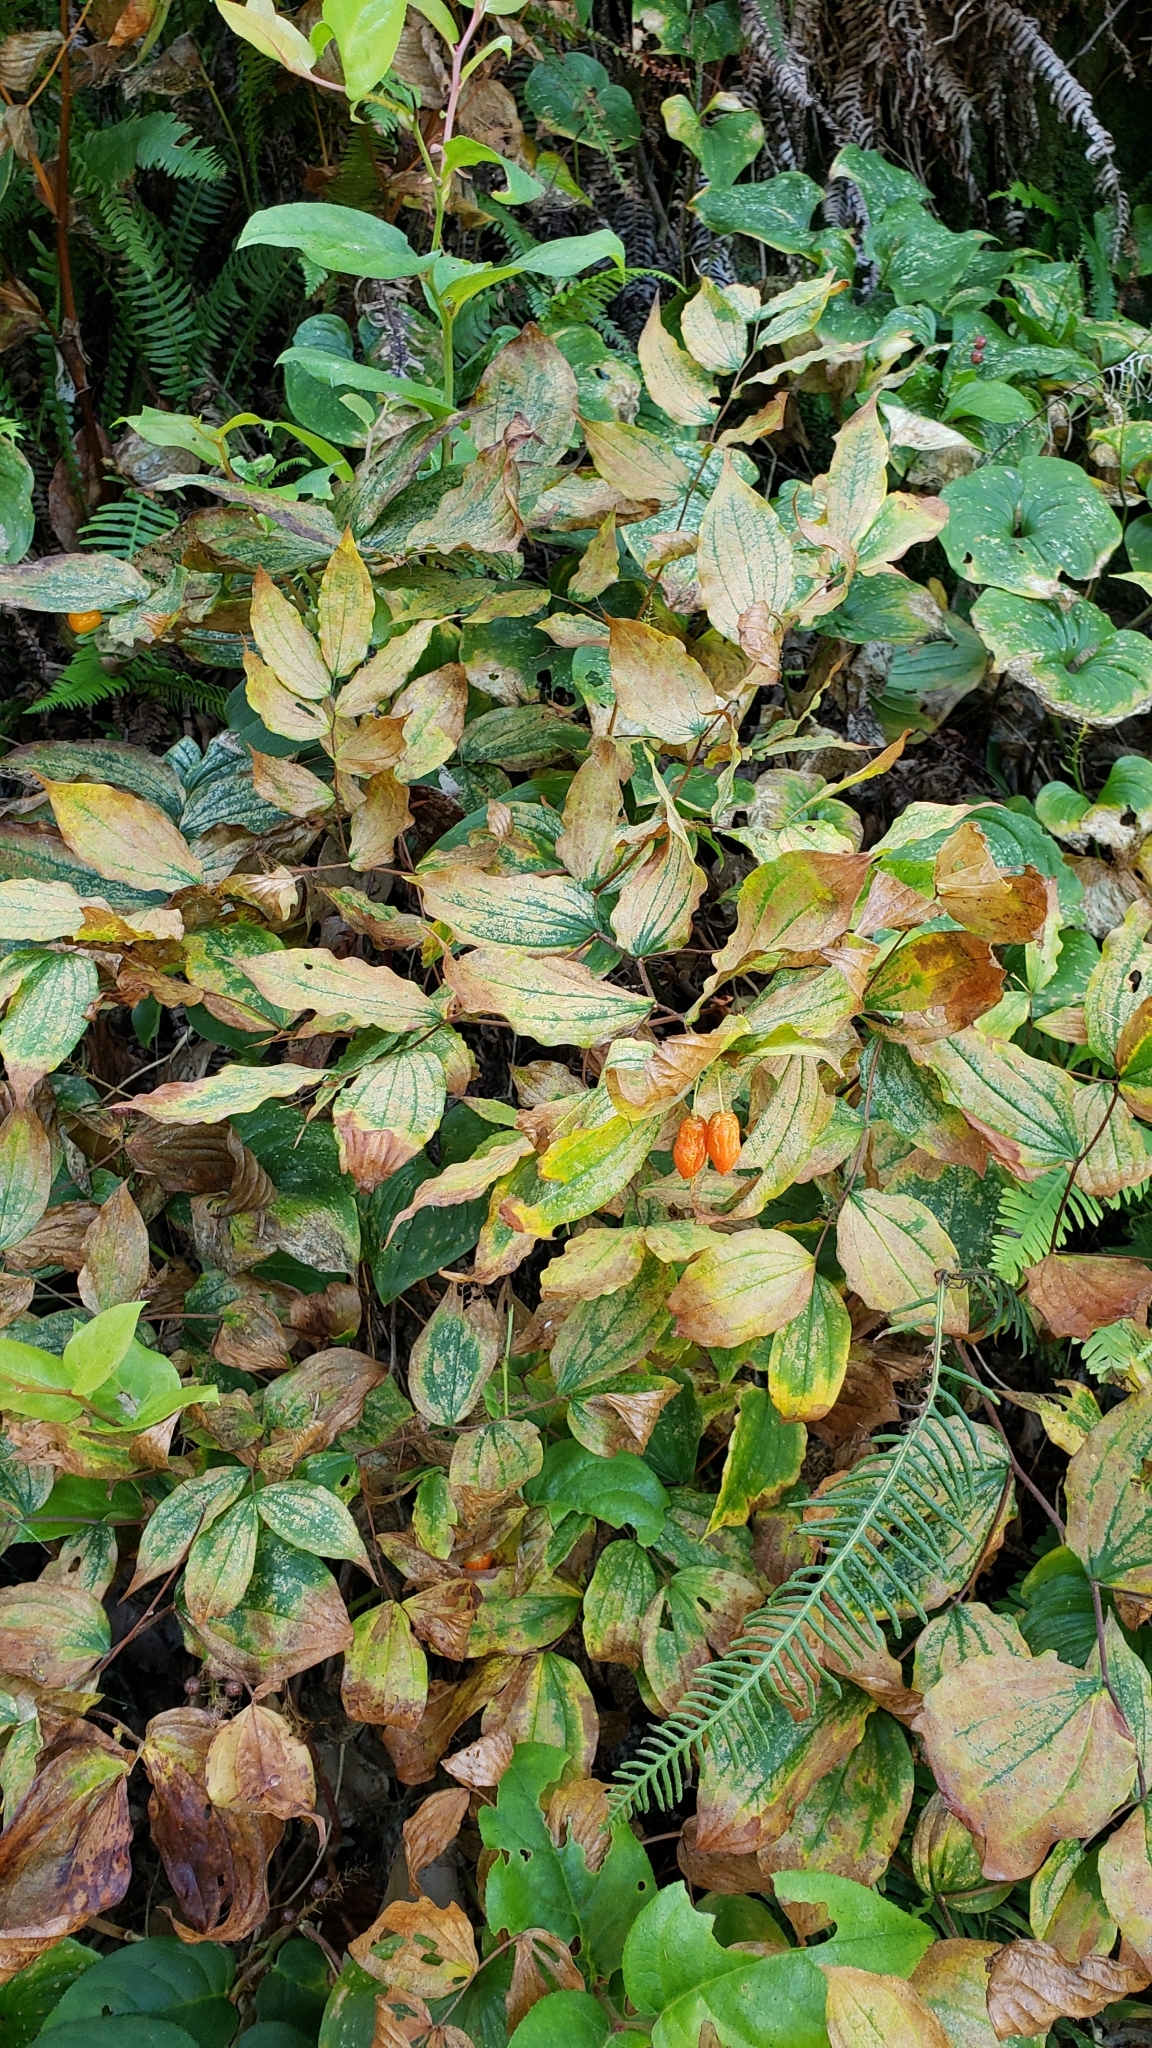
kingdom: Plantae
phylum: Tracheophyta
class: Liliopsida
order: Liliales
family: Liliaceae
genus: Prosartes
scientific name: Prosartes smithii
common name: Fairy-lantern
